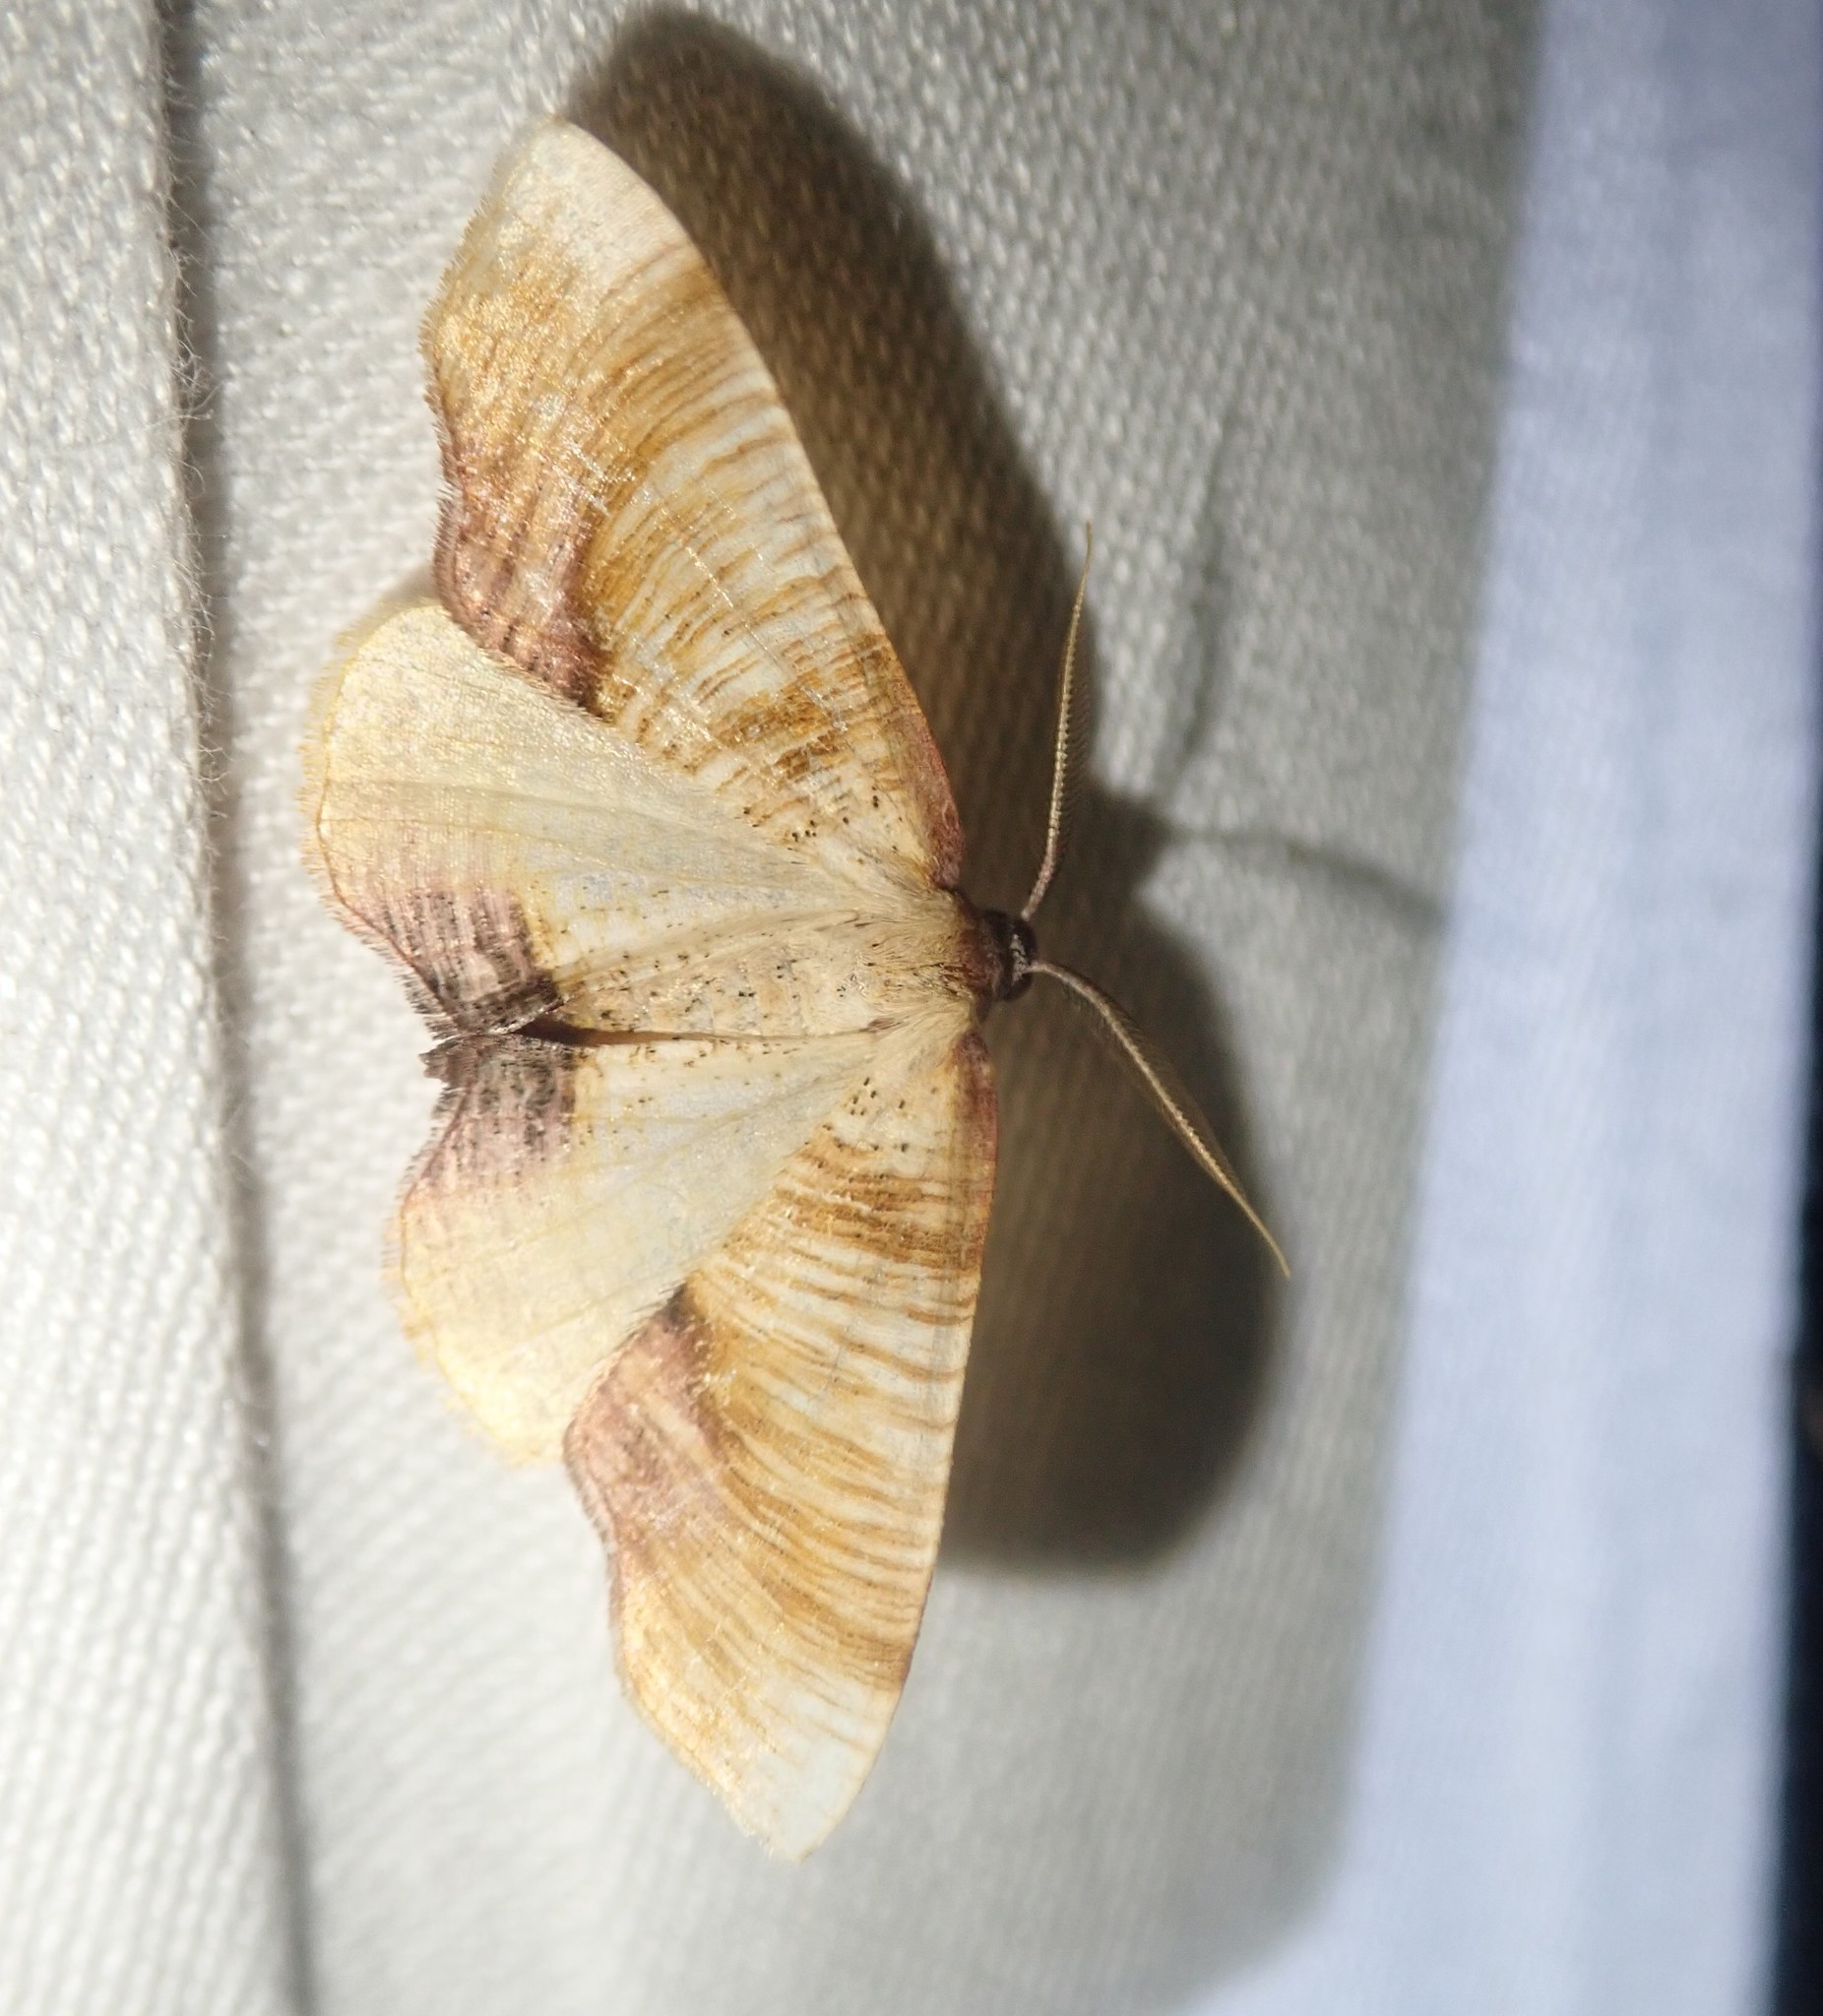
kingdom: Animalia
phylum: Arthropoda
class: Insecta
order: Lepidoptera
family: Geometridae
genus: Plagodis
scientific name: Plagodis dolabraria
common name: Scorched wing
